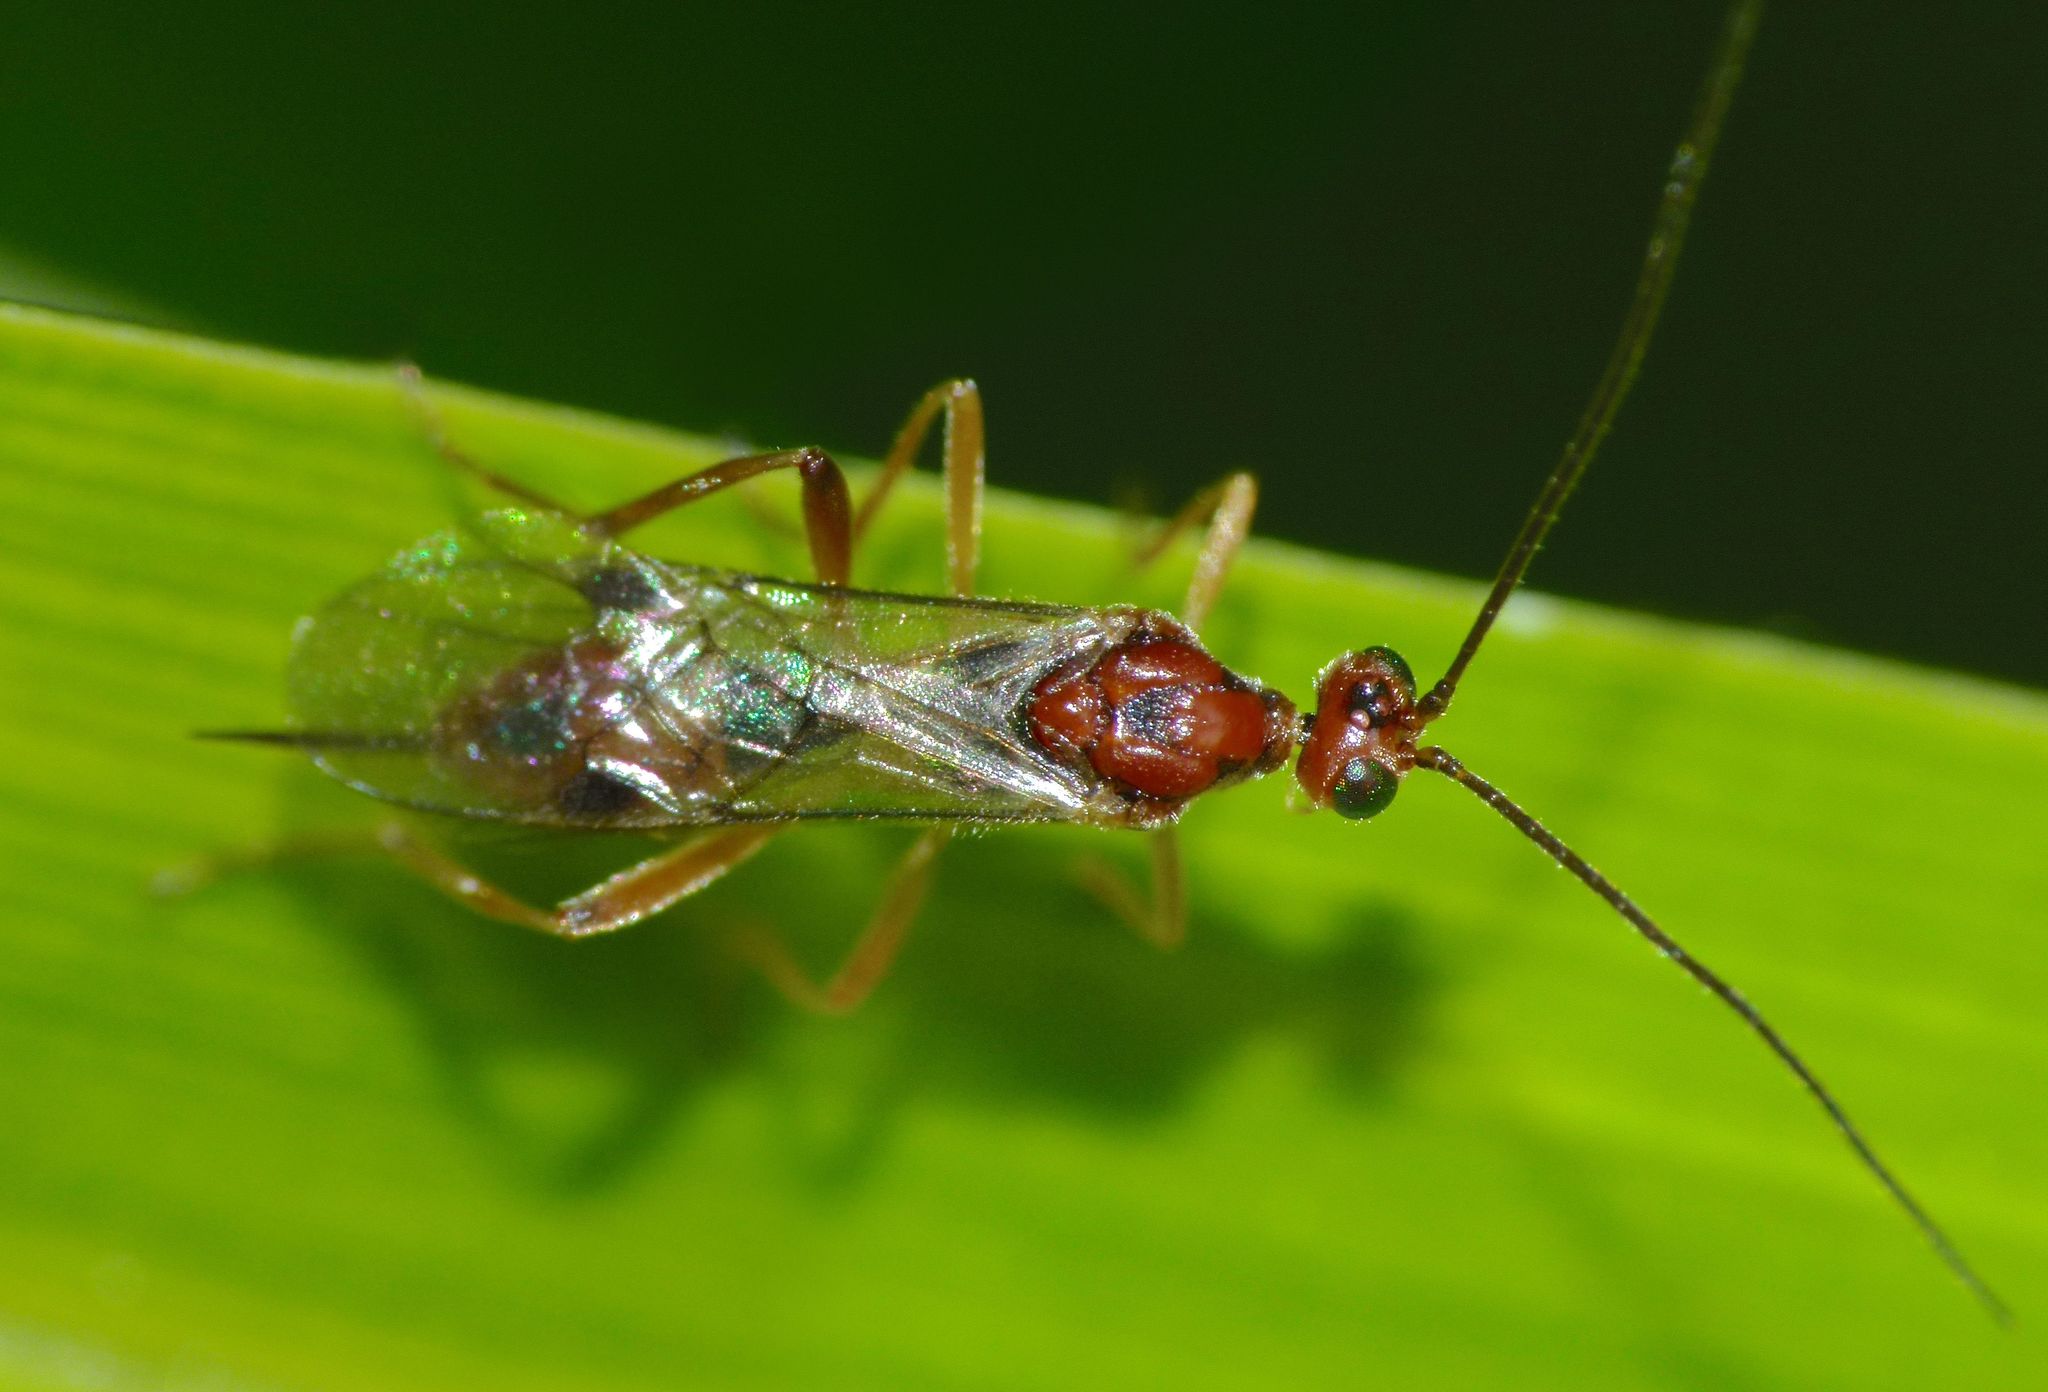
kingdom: Animalia
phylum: Arthropoda
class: Insecta
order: Hymenoptera
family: Braconidae
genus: Meteorus
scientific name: Meteorus pulchricornis
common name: Braconid wasp
